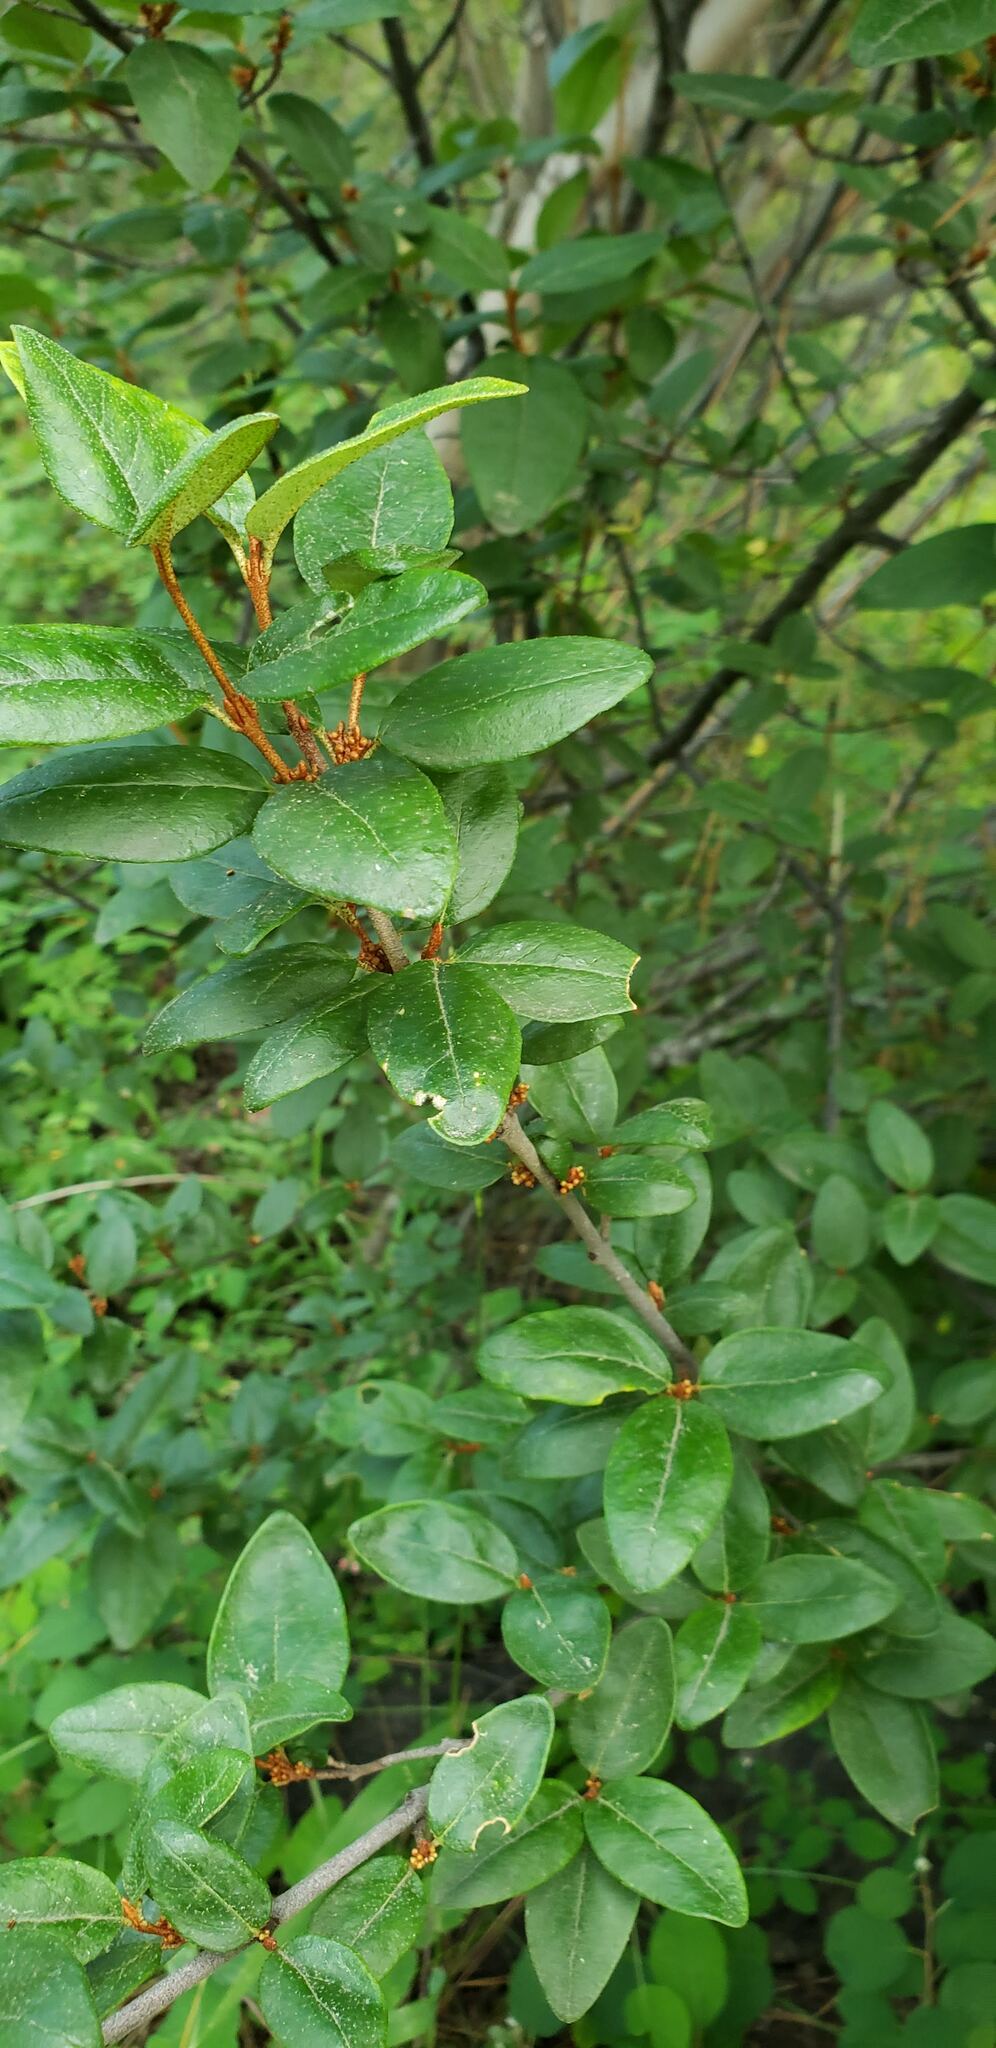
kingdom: Plantae
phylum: Tracheophyta
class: Magnoliopsida
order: Rosales
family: Elaeagnaceae
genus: Shepherdia
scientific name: Shepherdia canadensis
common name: Soapberry
